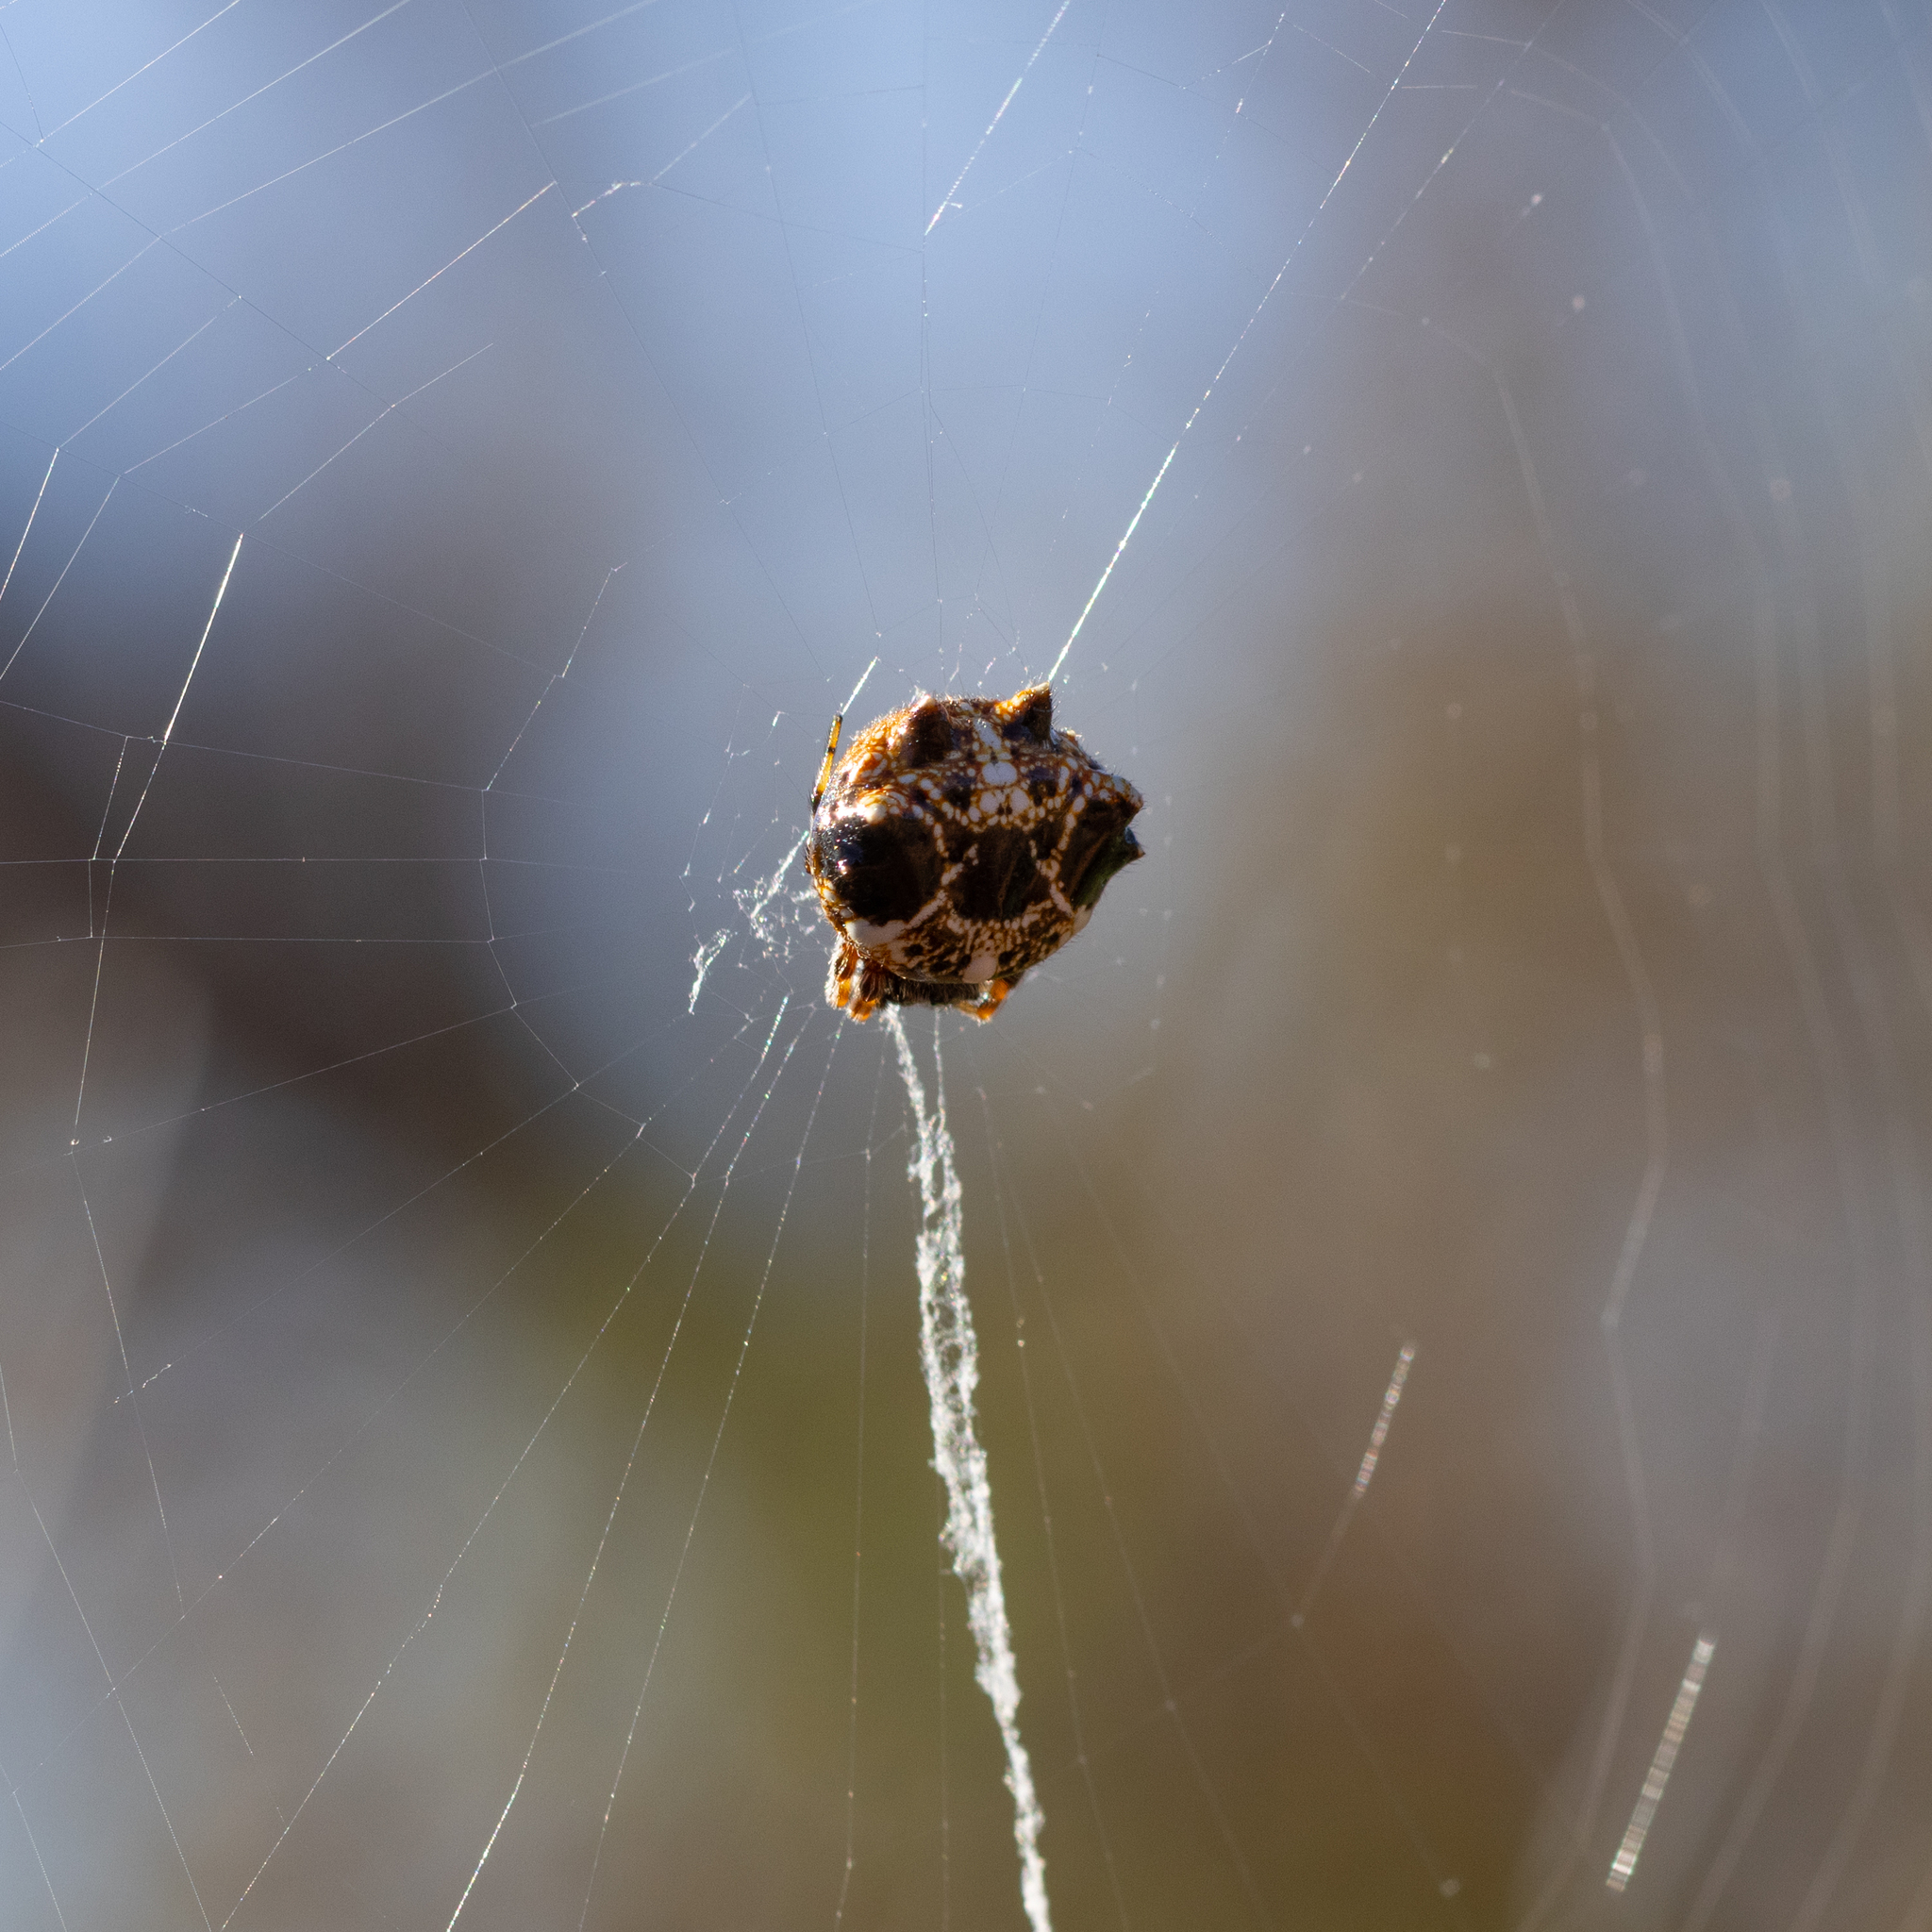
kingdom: Animalia
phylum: Arthropoda
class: Arachnida
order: Araneae
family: Araneidae
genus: Austracantha
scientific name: Austracantha minax
